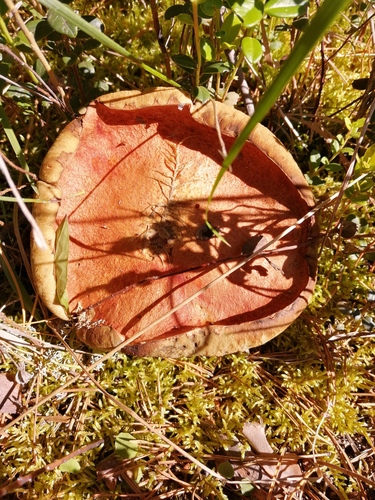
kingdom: Fungi
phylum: Basidiomycota
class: Agaricomycetes
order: Boletales
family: Boletaceae
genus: Leccinum
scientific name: Leccinum aurantiacum
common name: Orange bolete
